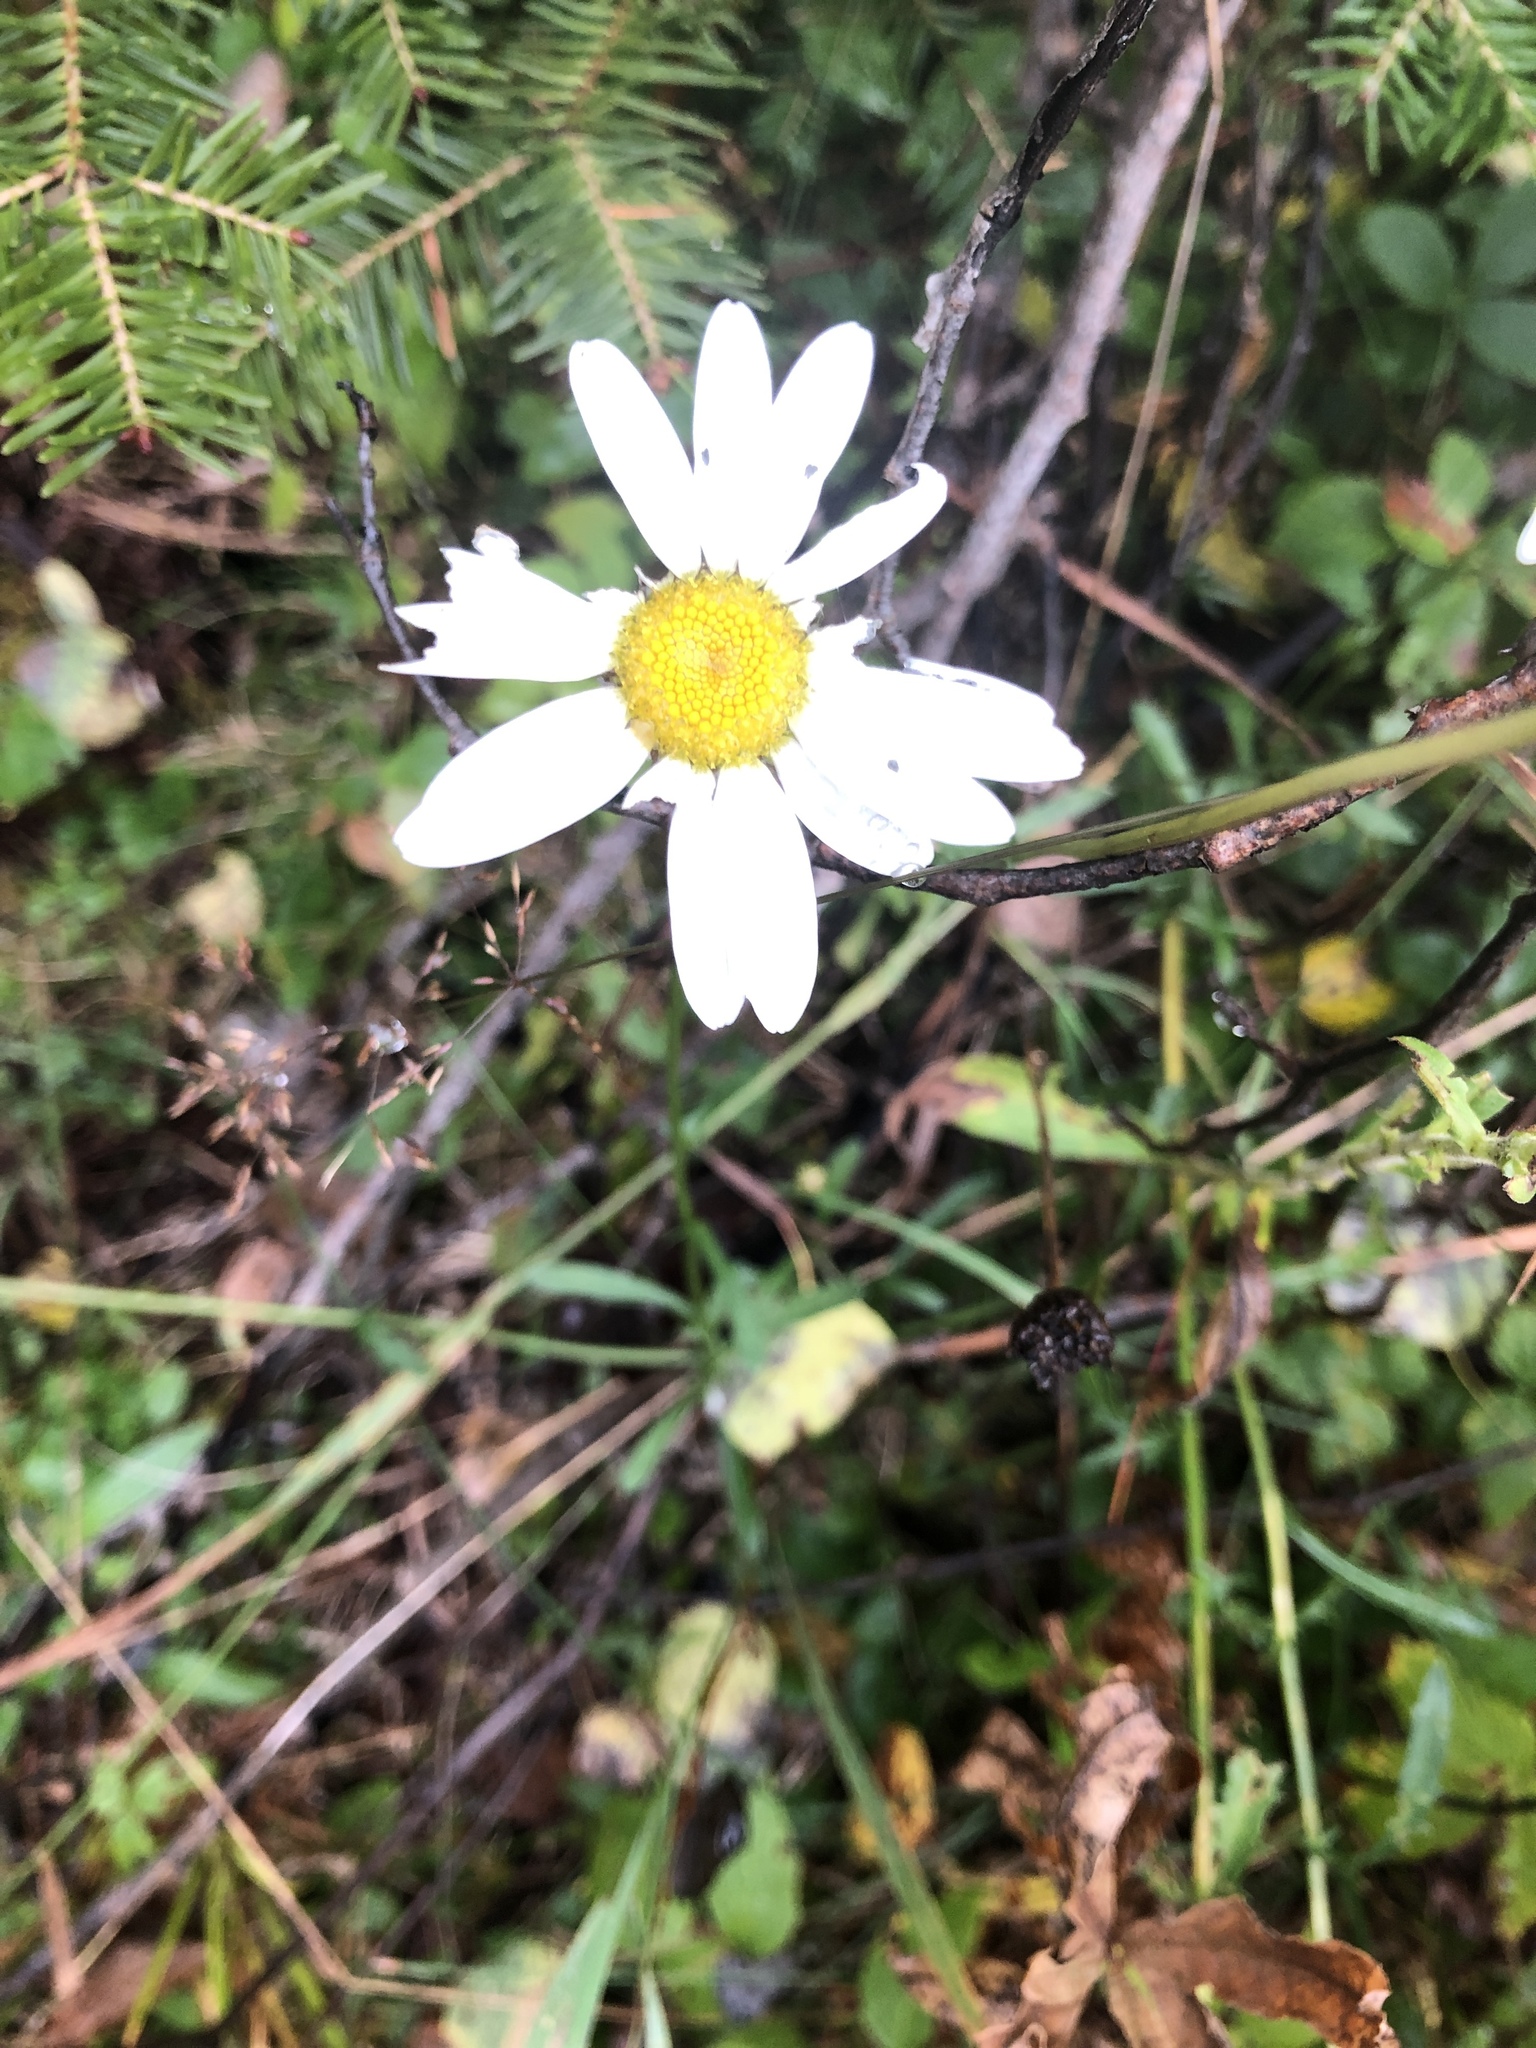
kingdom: Plantae
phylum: Tracheophyta
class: Magnoliopsida
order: Asterales
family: Asteraceae
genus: Leucanthemum
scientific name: Leucanthemum vulgare
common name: Oxeye daisy
